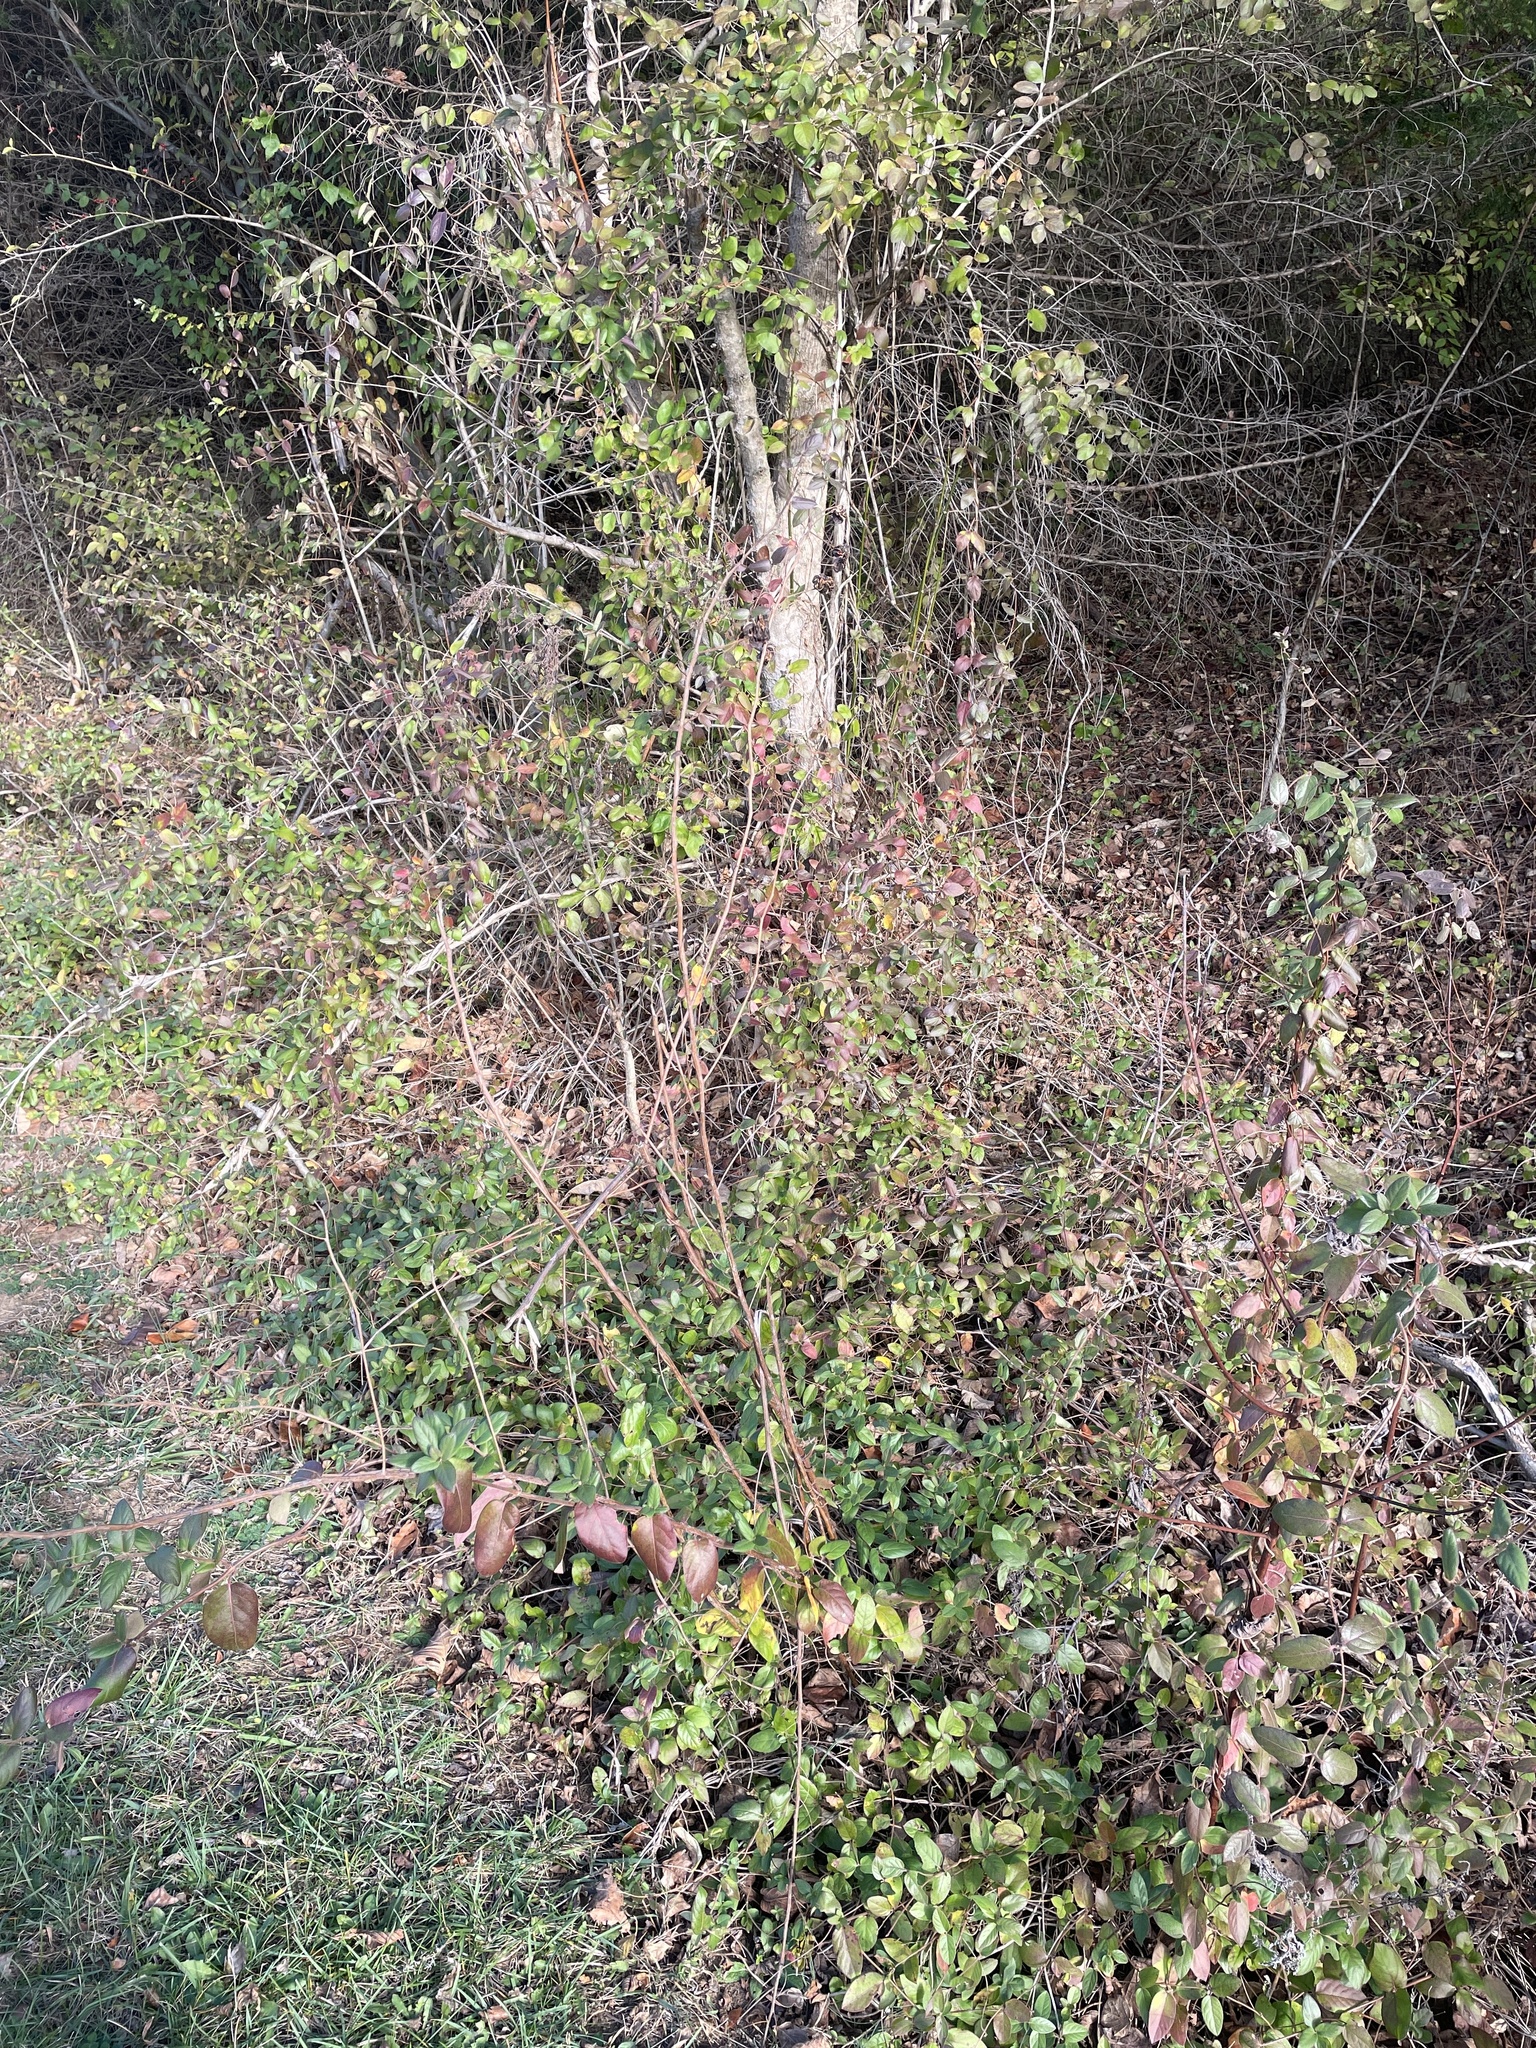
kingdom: Plantae
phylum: Tracheophyta
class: Magnoliopsida
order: Fabales
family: Fabaceae
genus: Desmanthus
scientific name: Desmanthus illinoensis
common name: Illinois bundle-flower
